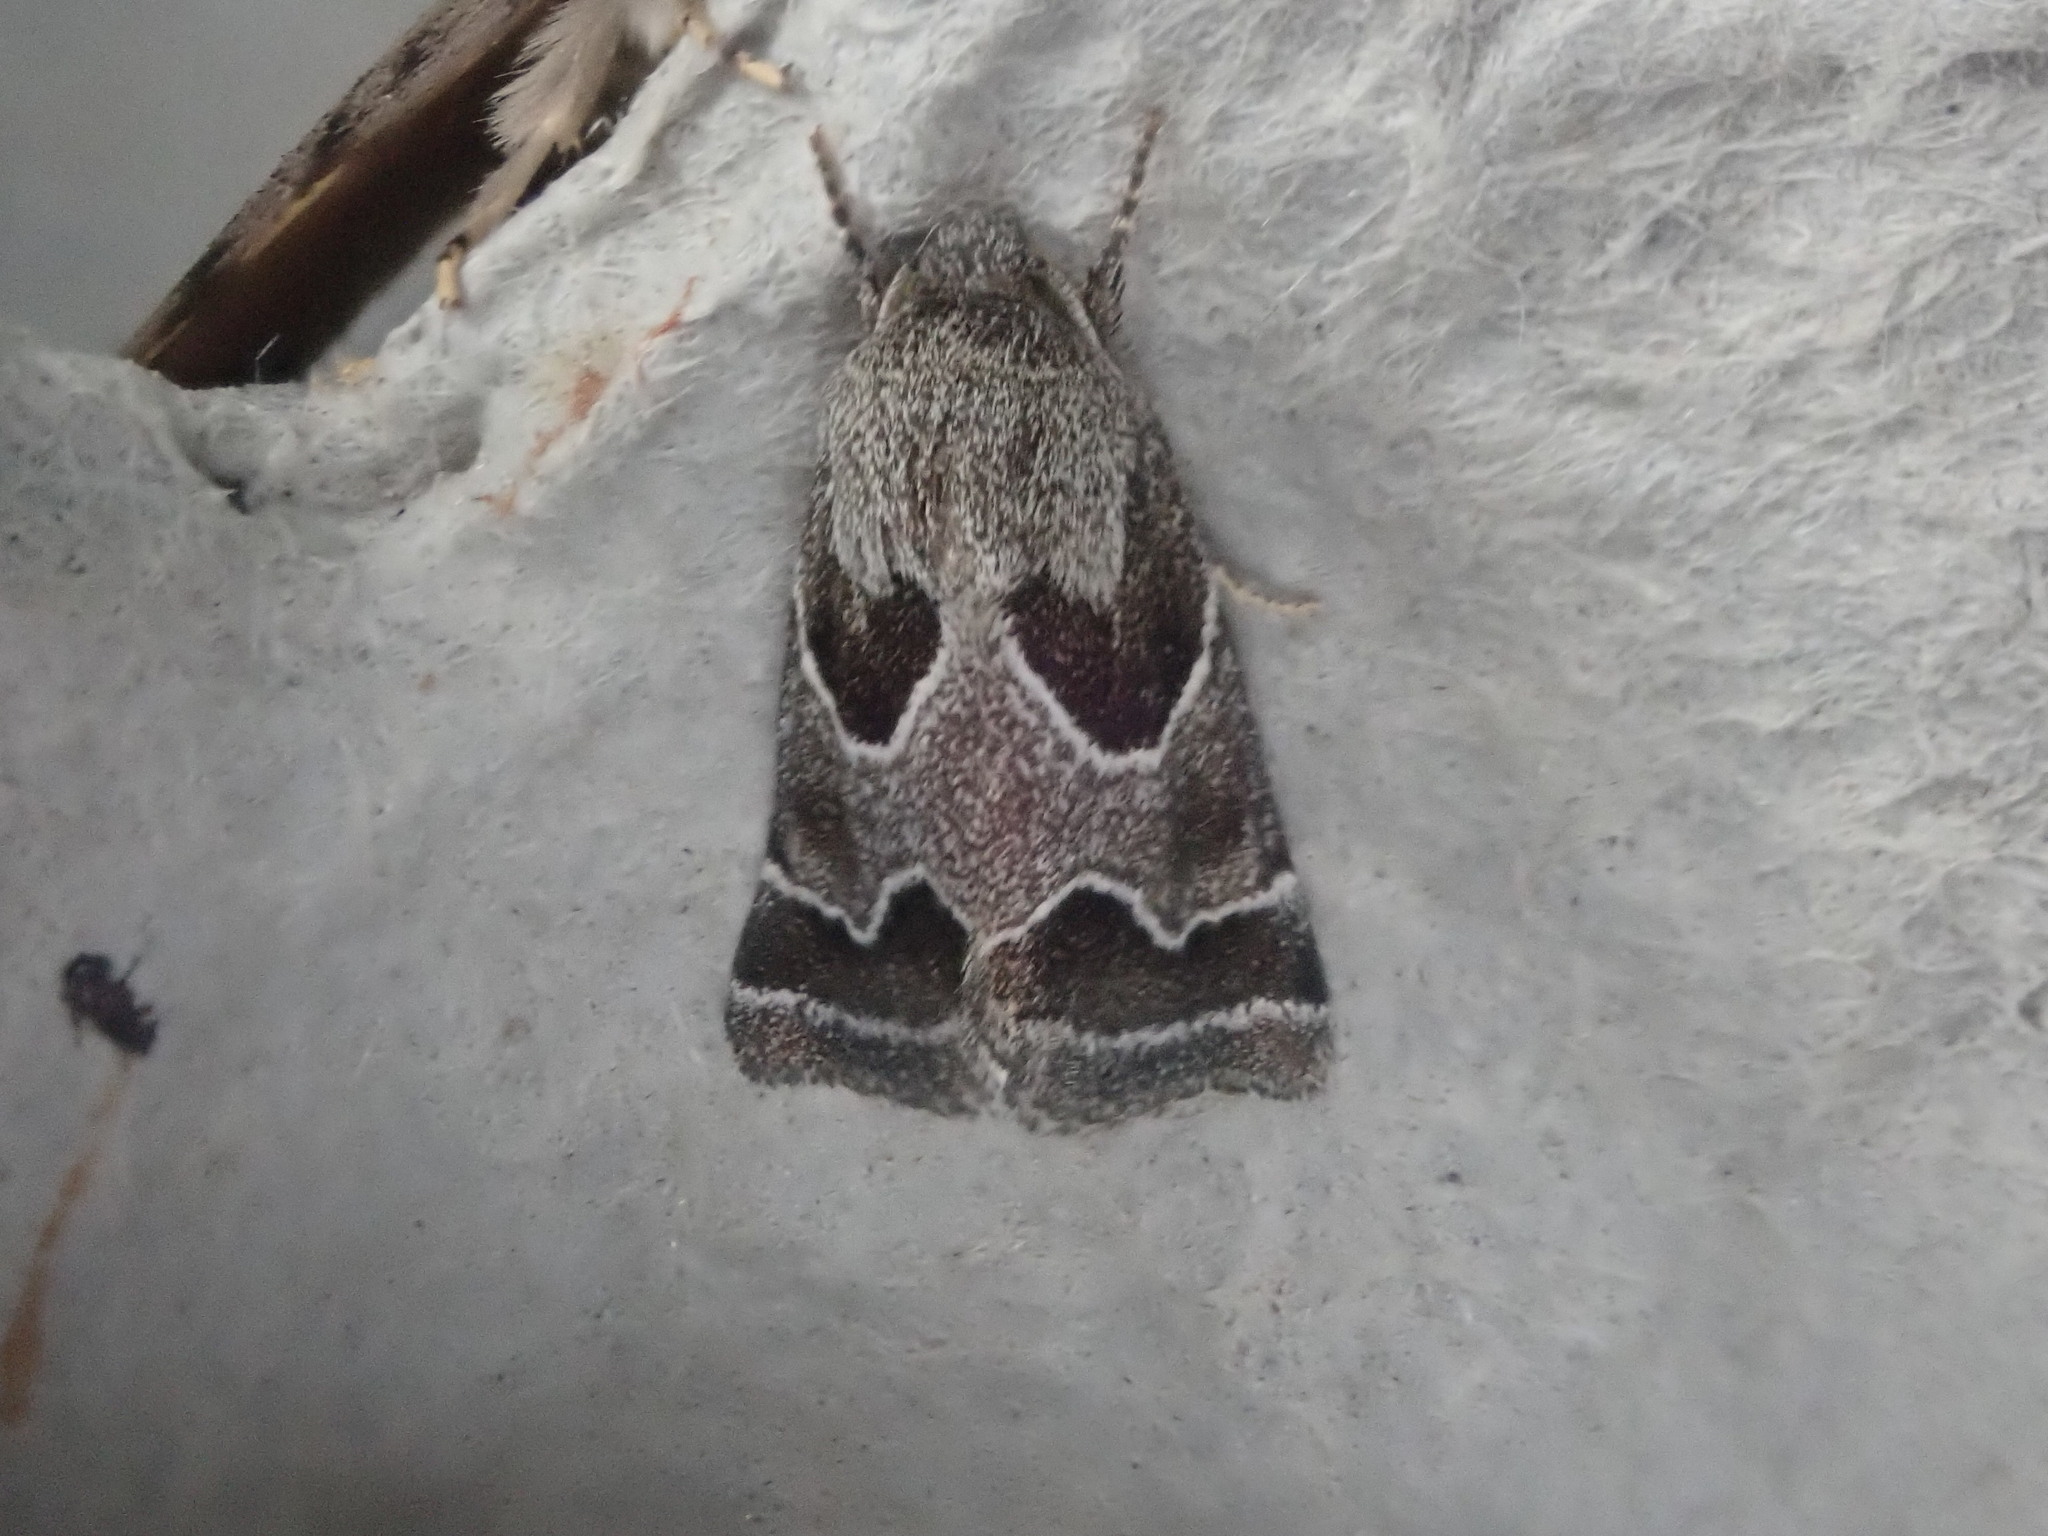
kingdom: Animalia
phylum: Arthropoda
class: Insecta
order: Lepidoptera
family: Noctuidae
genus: Schinia
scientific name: Schinia rivulosa
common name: Scarce meal-moth
